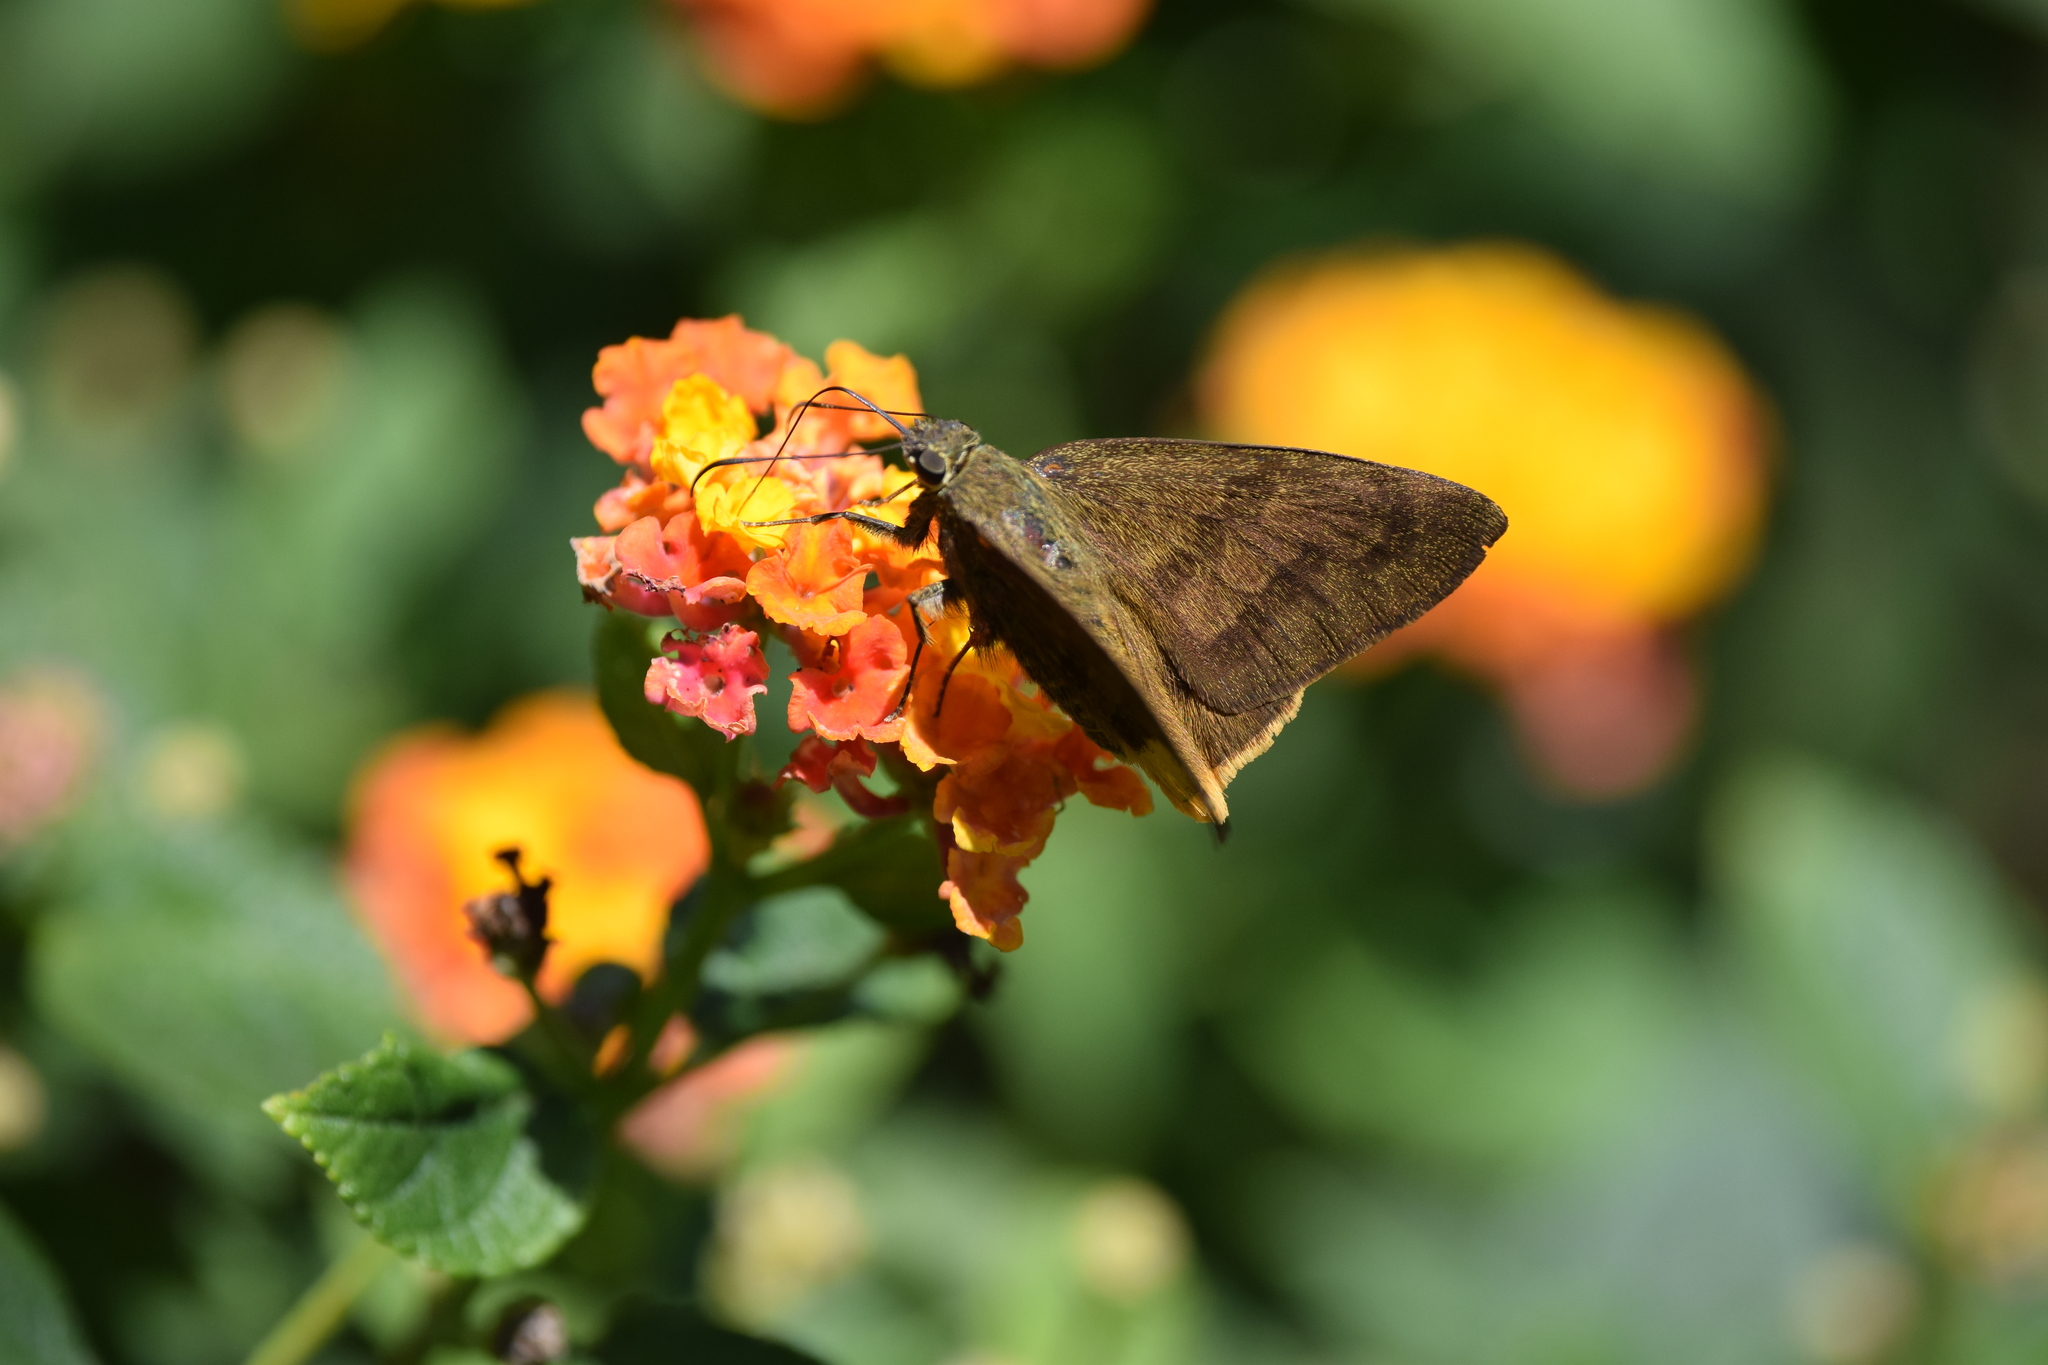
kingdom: Animalia
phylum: Arthropoda
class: Insecta
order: Lepidoptera
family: Hesperiidae
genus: Astraptes
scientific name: Astraptes anaphus
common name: Yellow-tipped flasher
